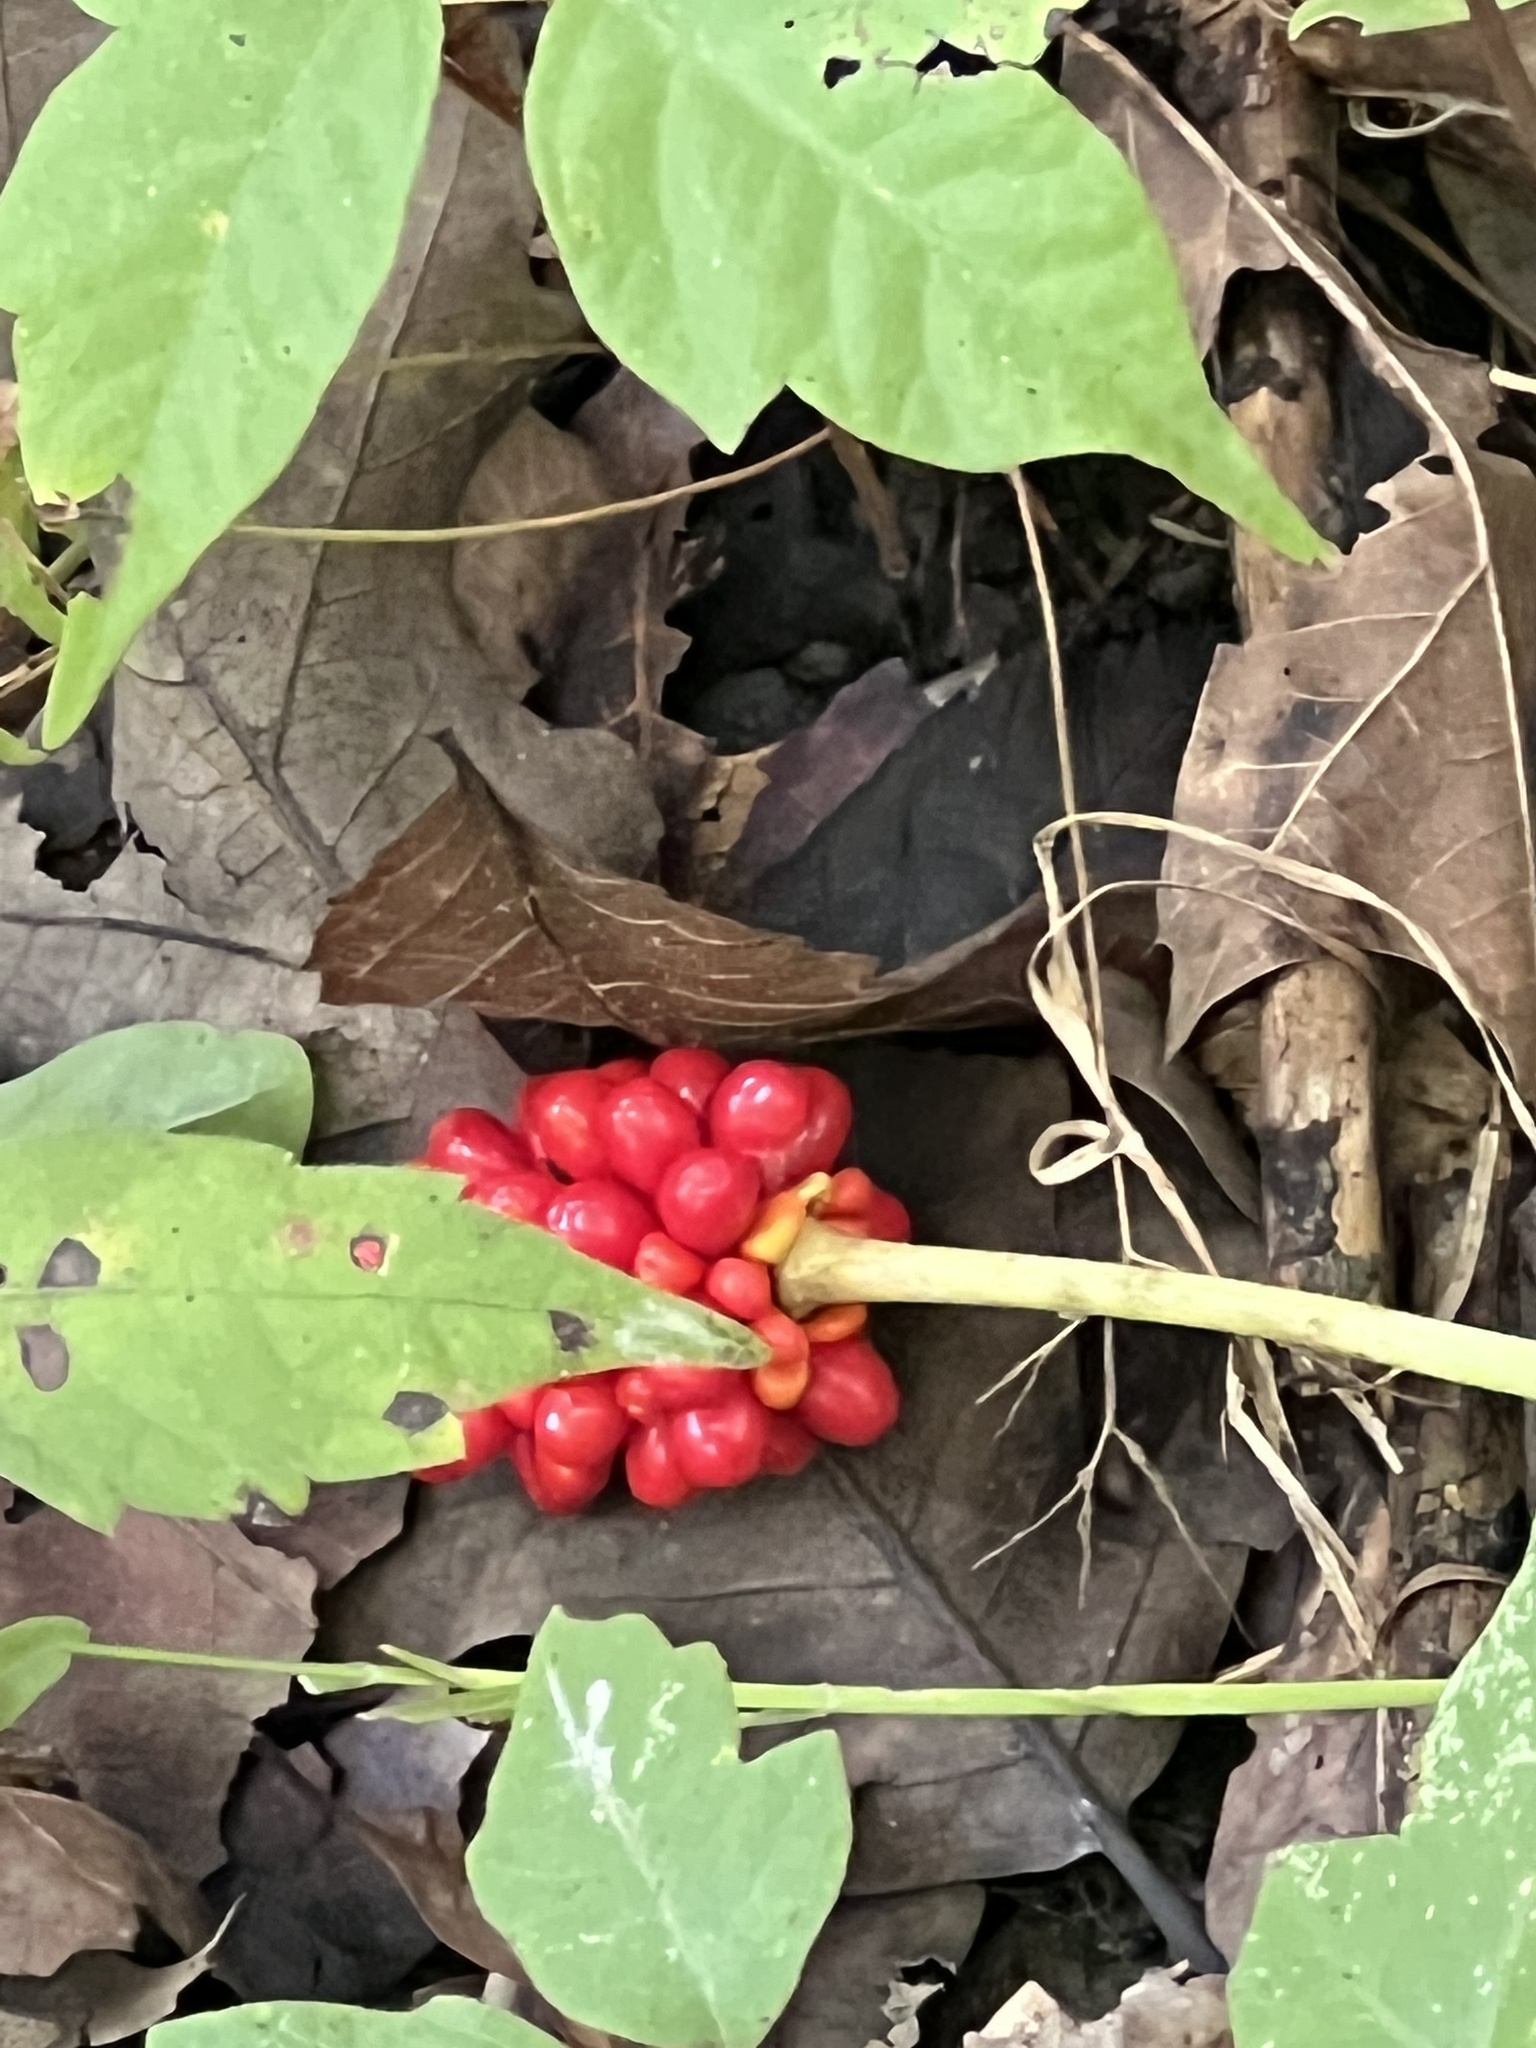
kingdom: Plantae
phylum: Tracheophyta
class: Liliopsida
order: Alismatales
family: Araceae
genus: Arisaema
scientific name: Arisaema triphyllum
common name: Jack-in-the-pulpit
